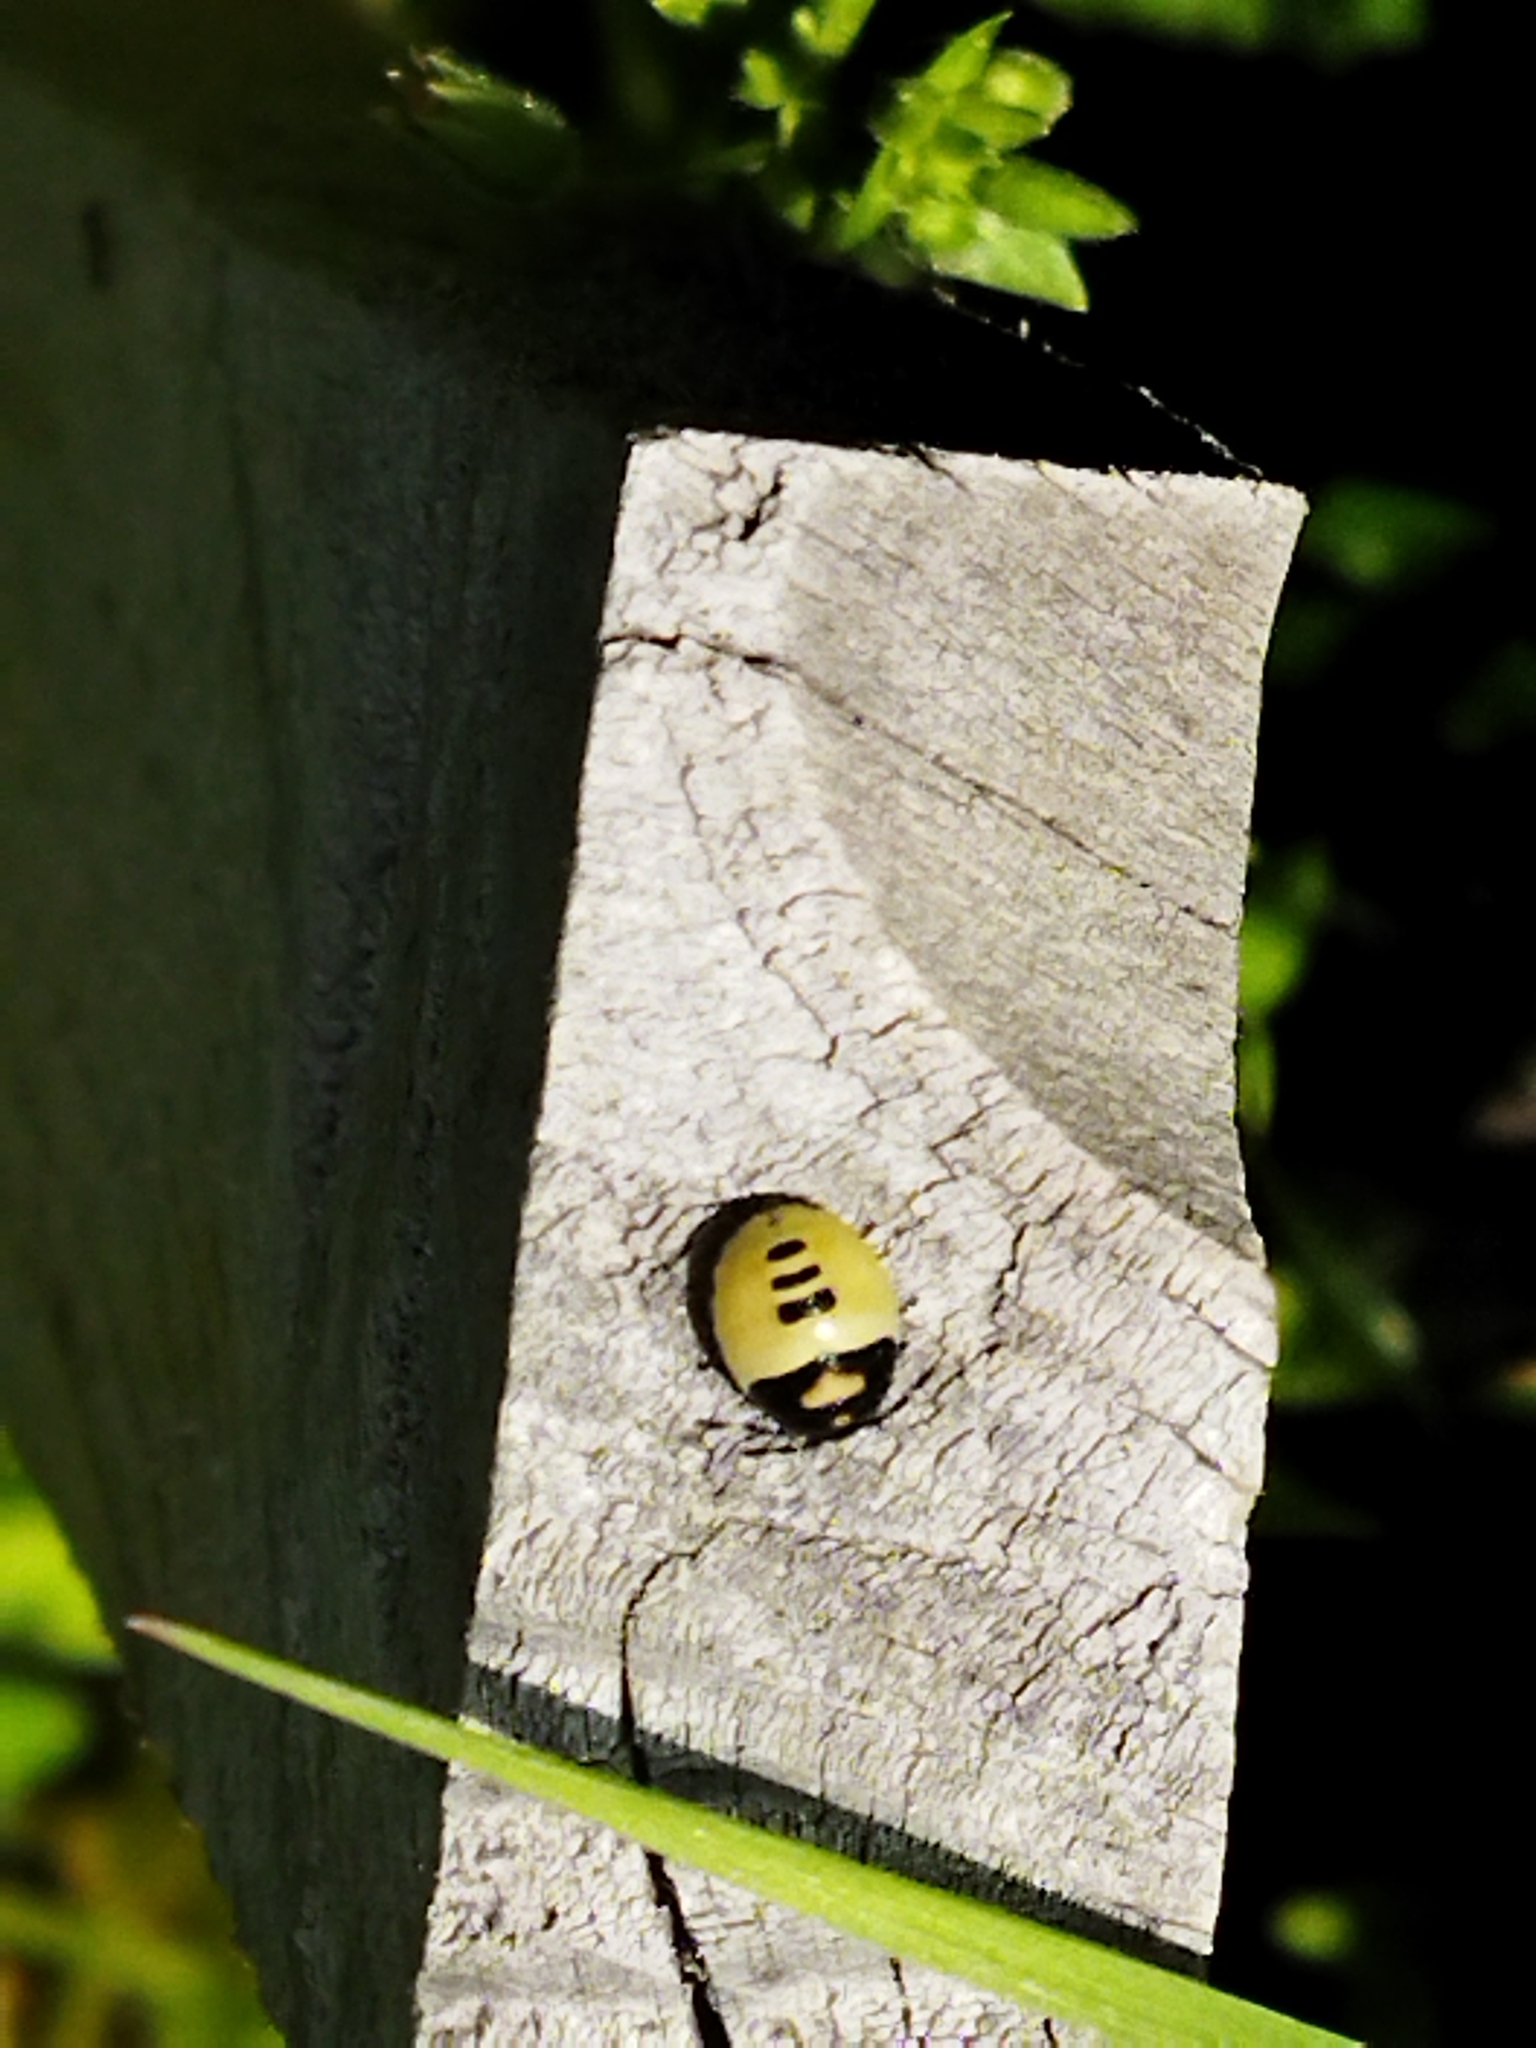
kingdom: Animalia
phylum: Arthropoda
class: Insecta
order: Hemiptera
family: Cydnidae
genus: Tritomegas
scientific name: Tritomegas bicolor
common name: Pied shieldbug
